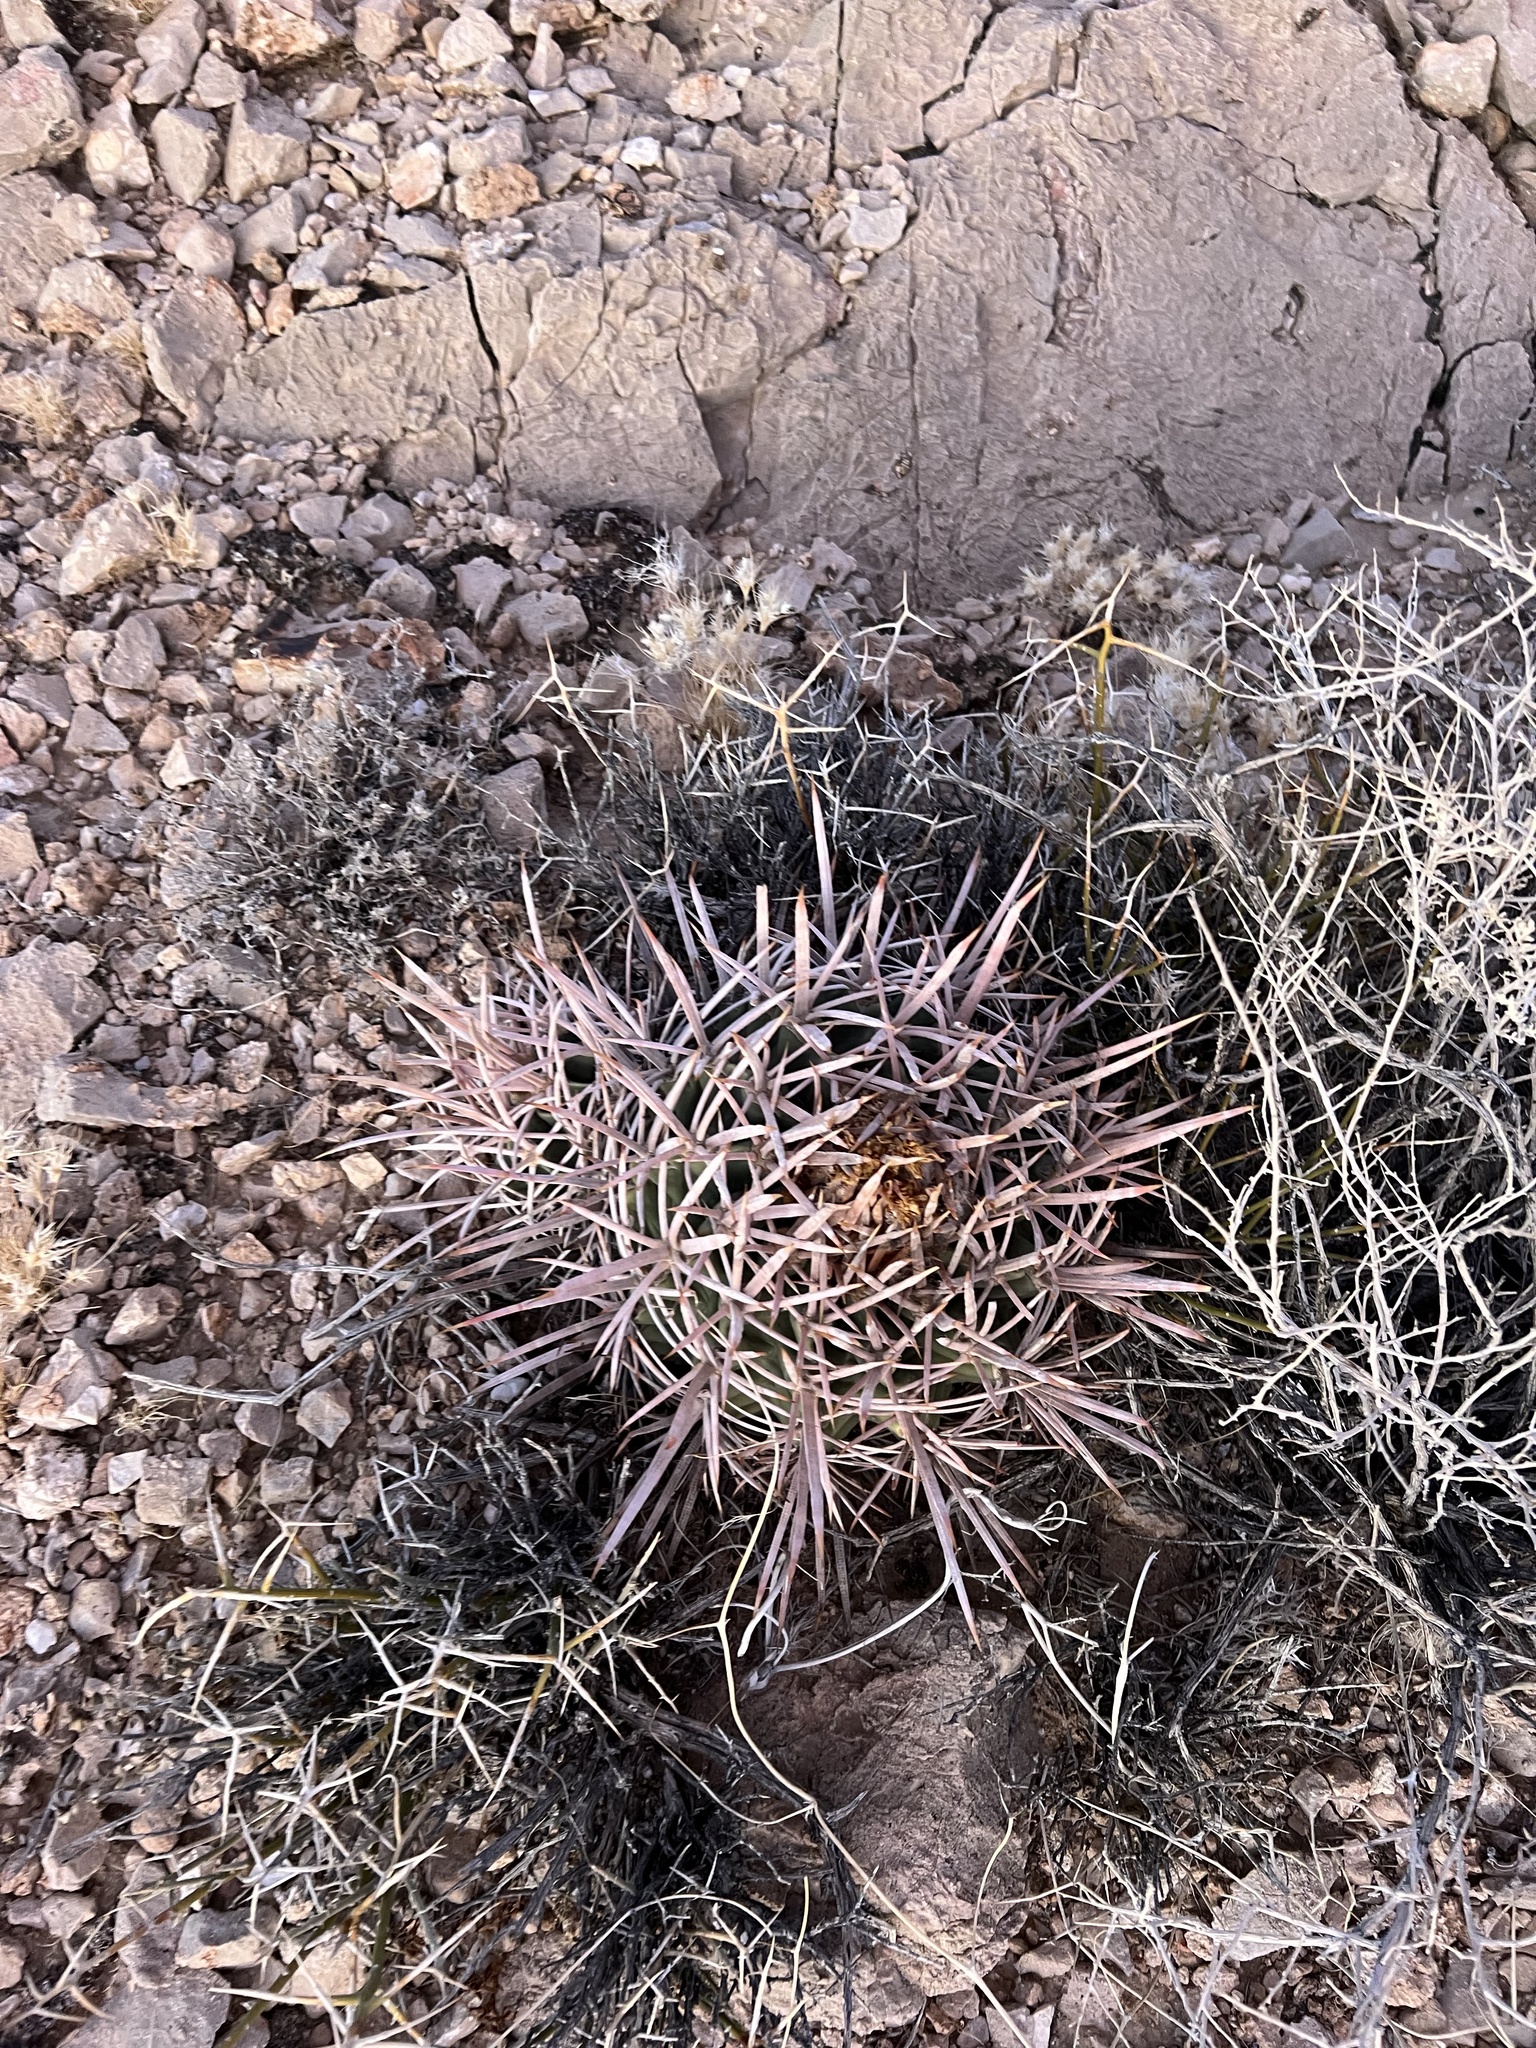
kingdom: Plantae
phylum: Tracheophyta
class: Magnoliopsida
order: Caryophyllales
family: Cactaceae
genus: Echinocactus
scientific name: Echinocactus polycephalus
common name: Cottontop cactus
